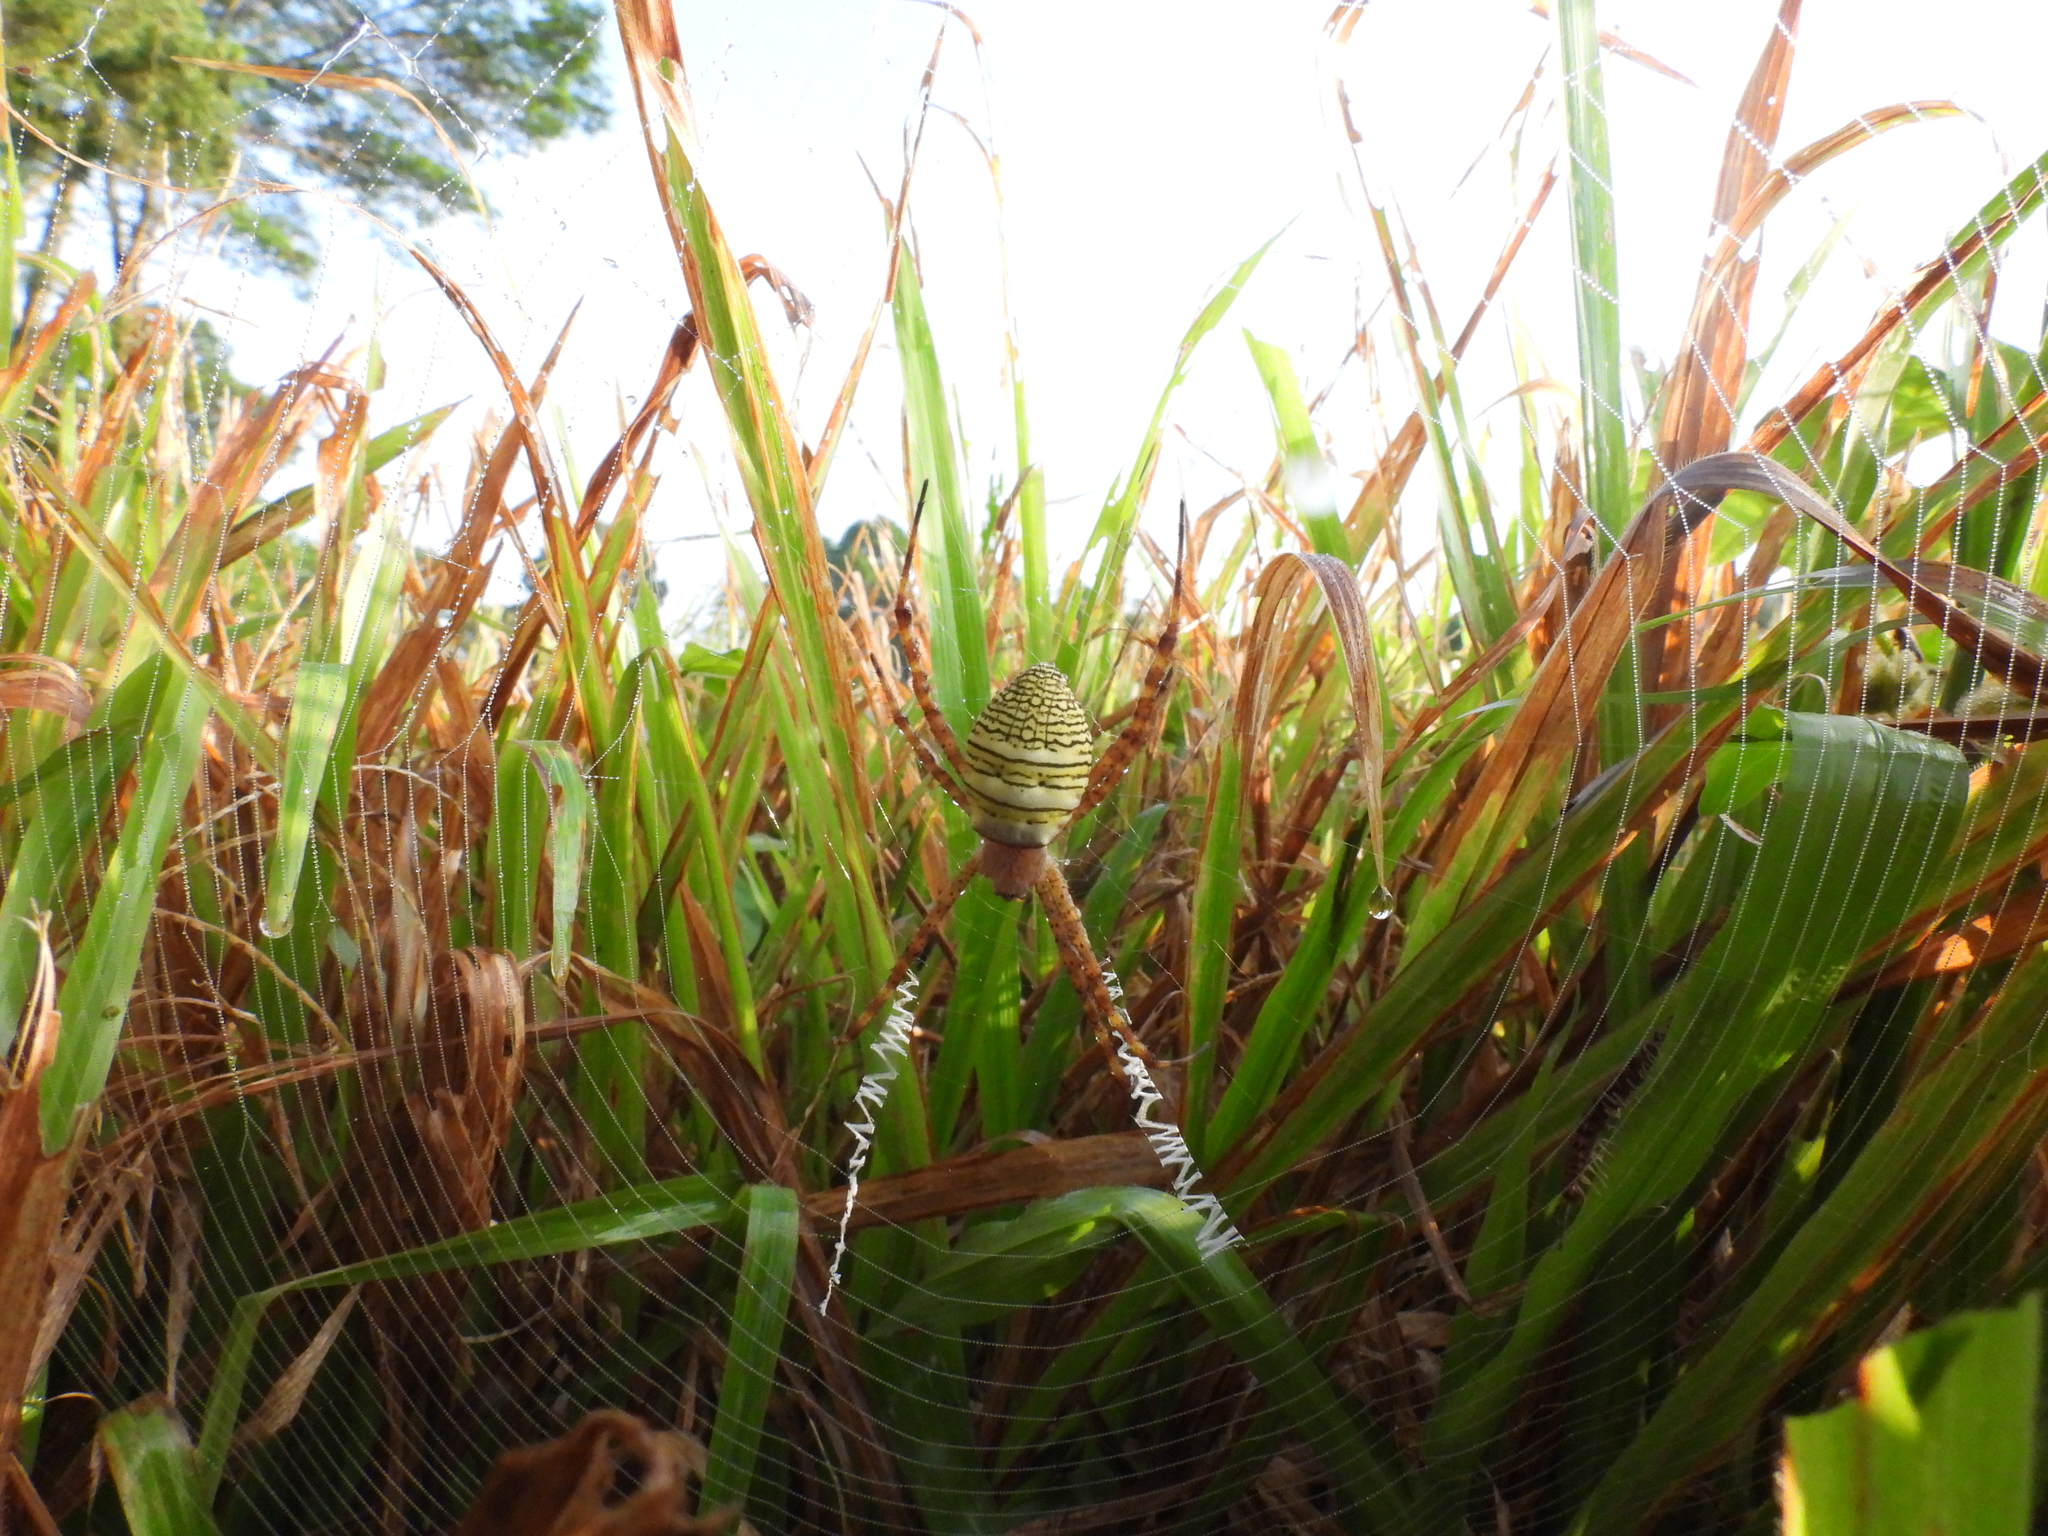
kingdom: Animalia
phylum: Arthropoda
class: Arachnida
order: Araneae
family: Araneidae
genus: Argiope
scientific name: Argiope aemula
